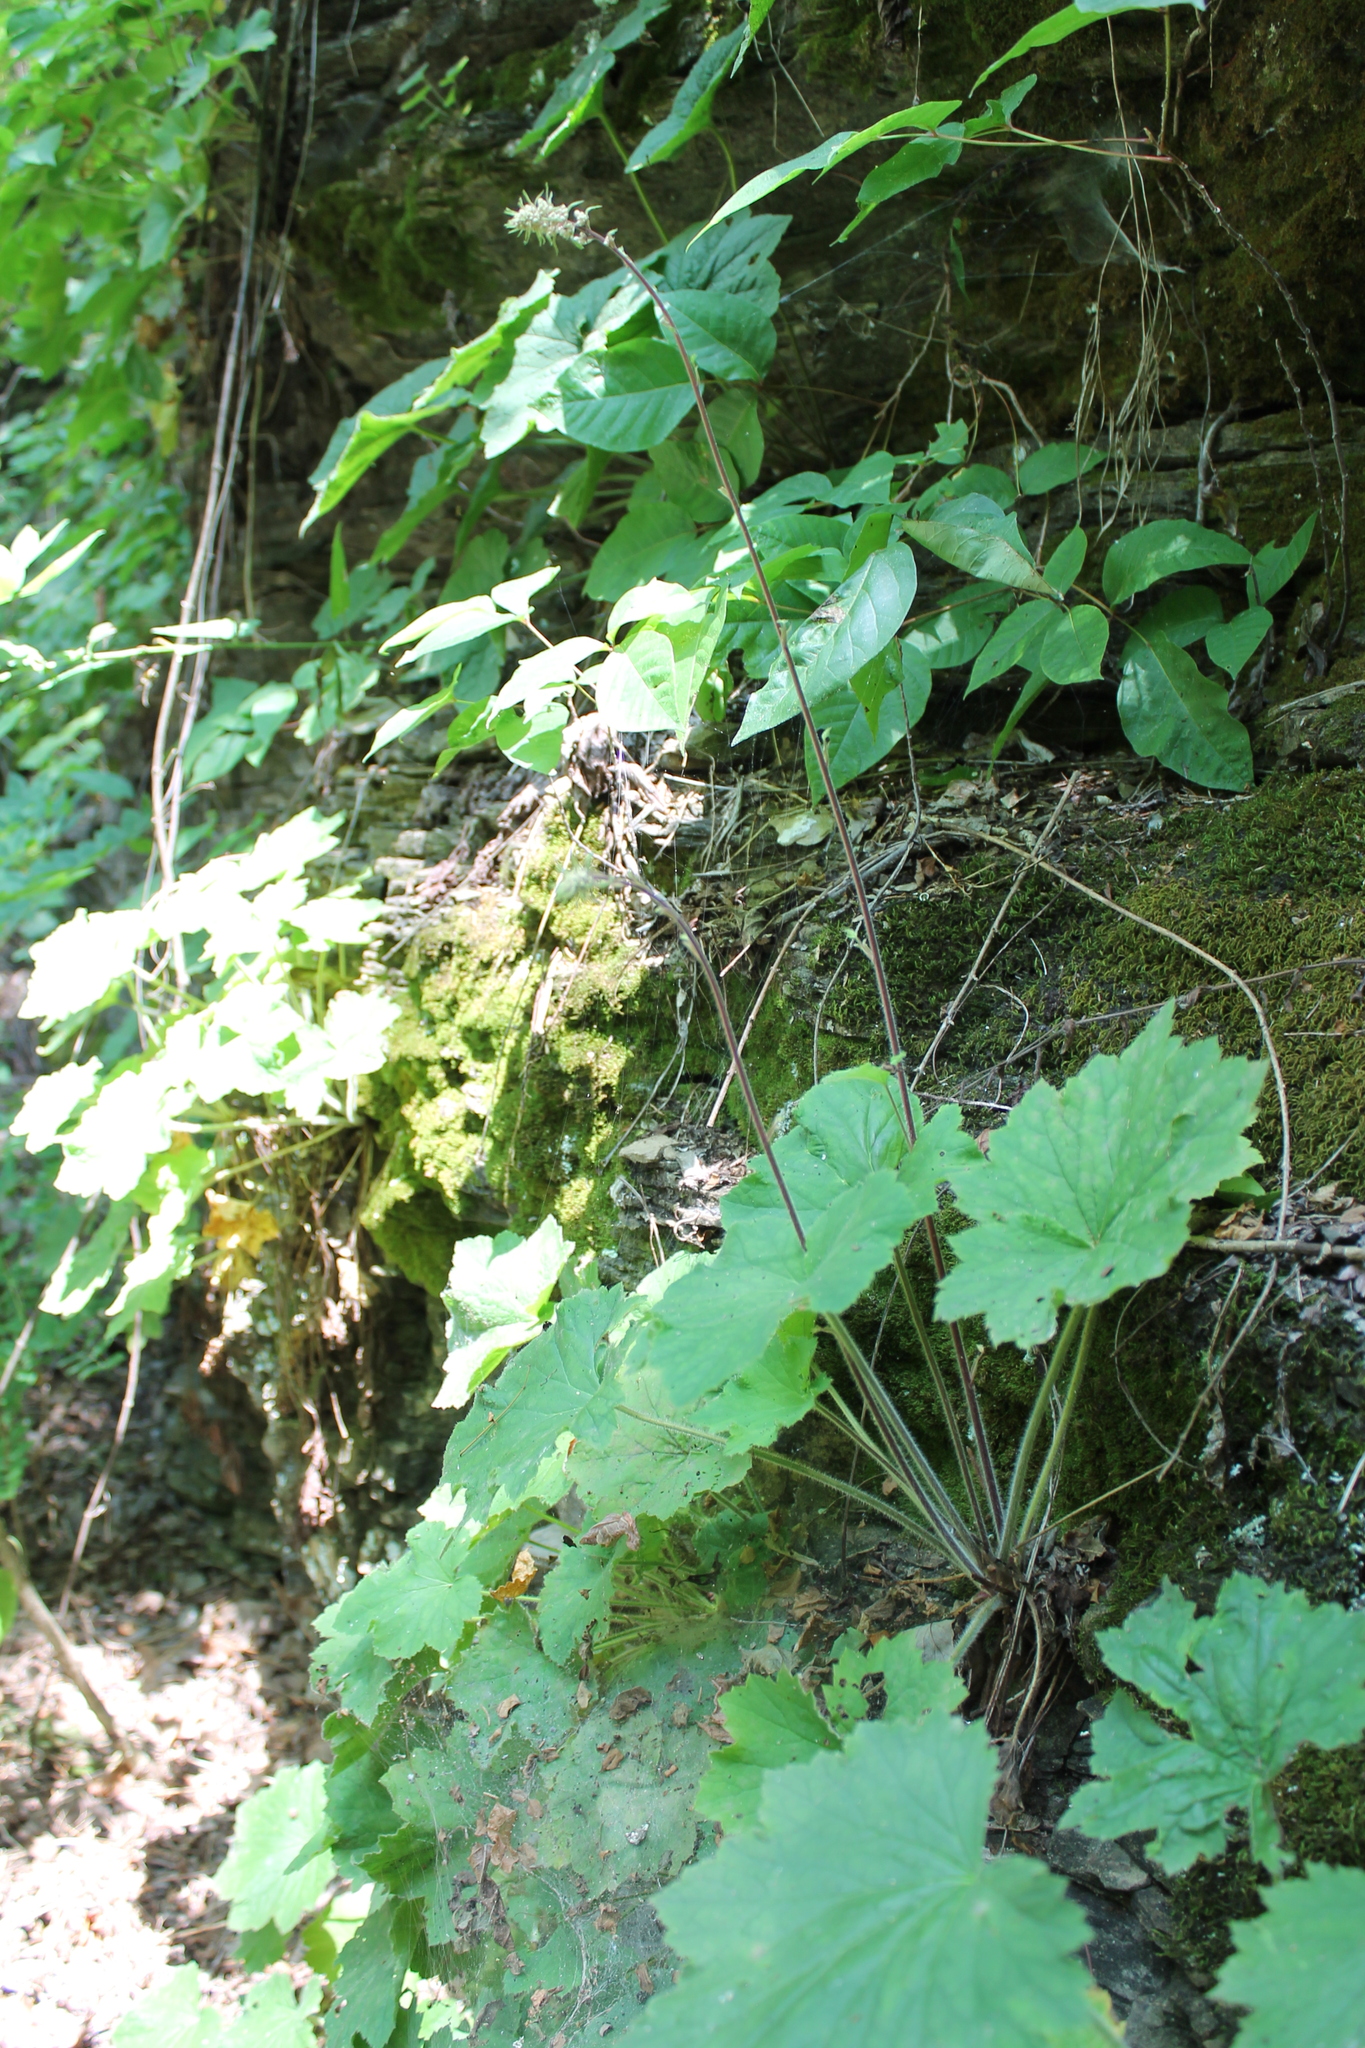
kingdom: Plantae
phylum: Tracheophyta
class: Magnoliopsida
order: Saxifragales
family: Saxifragaceae
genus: Heuchera
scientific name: Heuchera villosa
